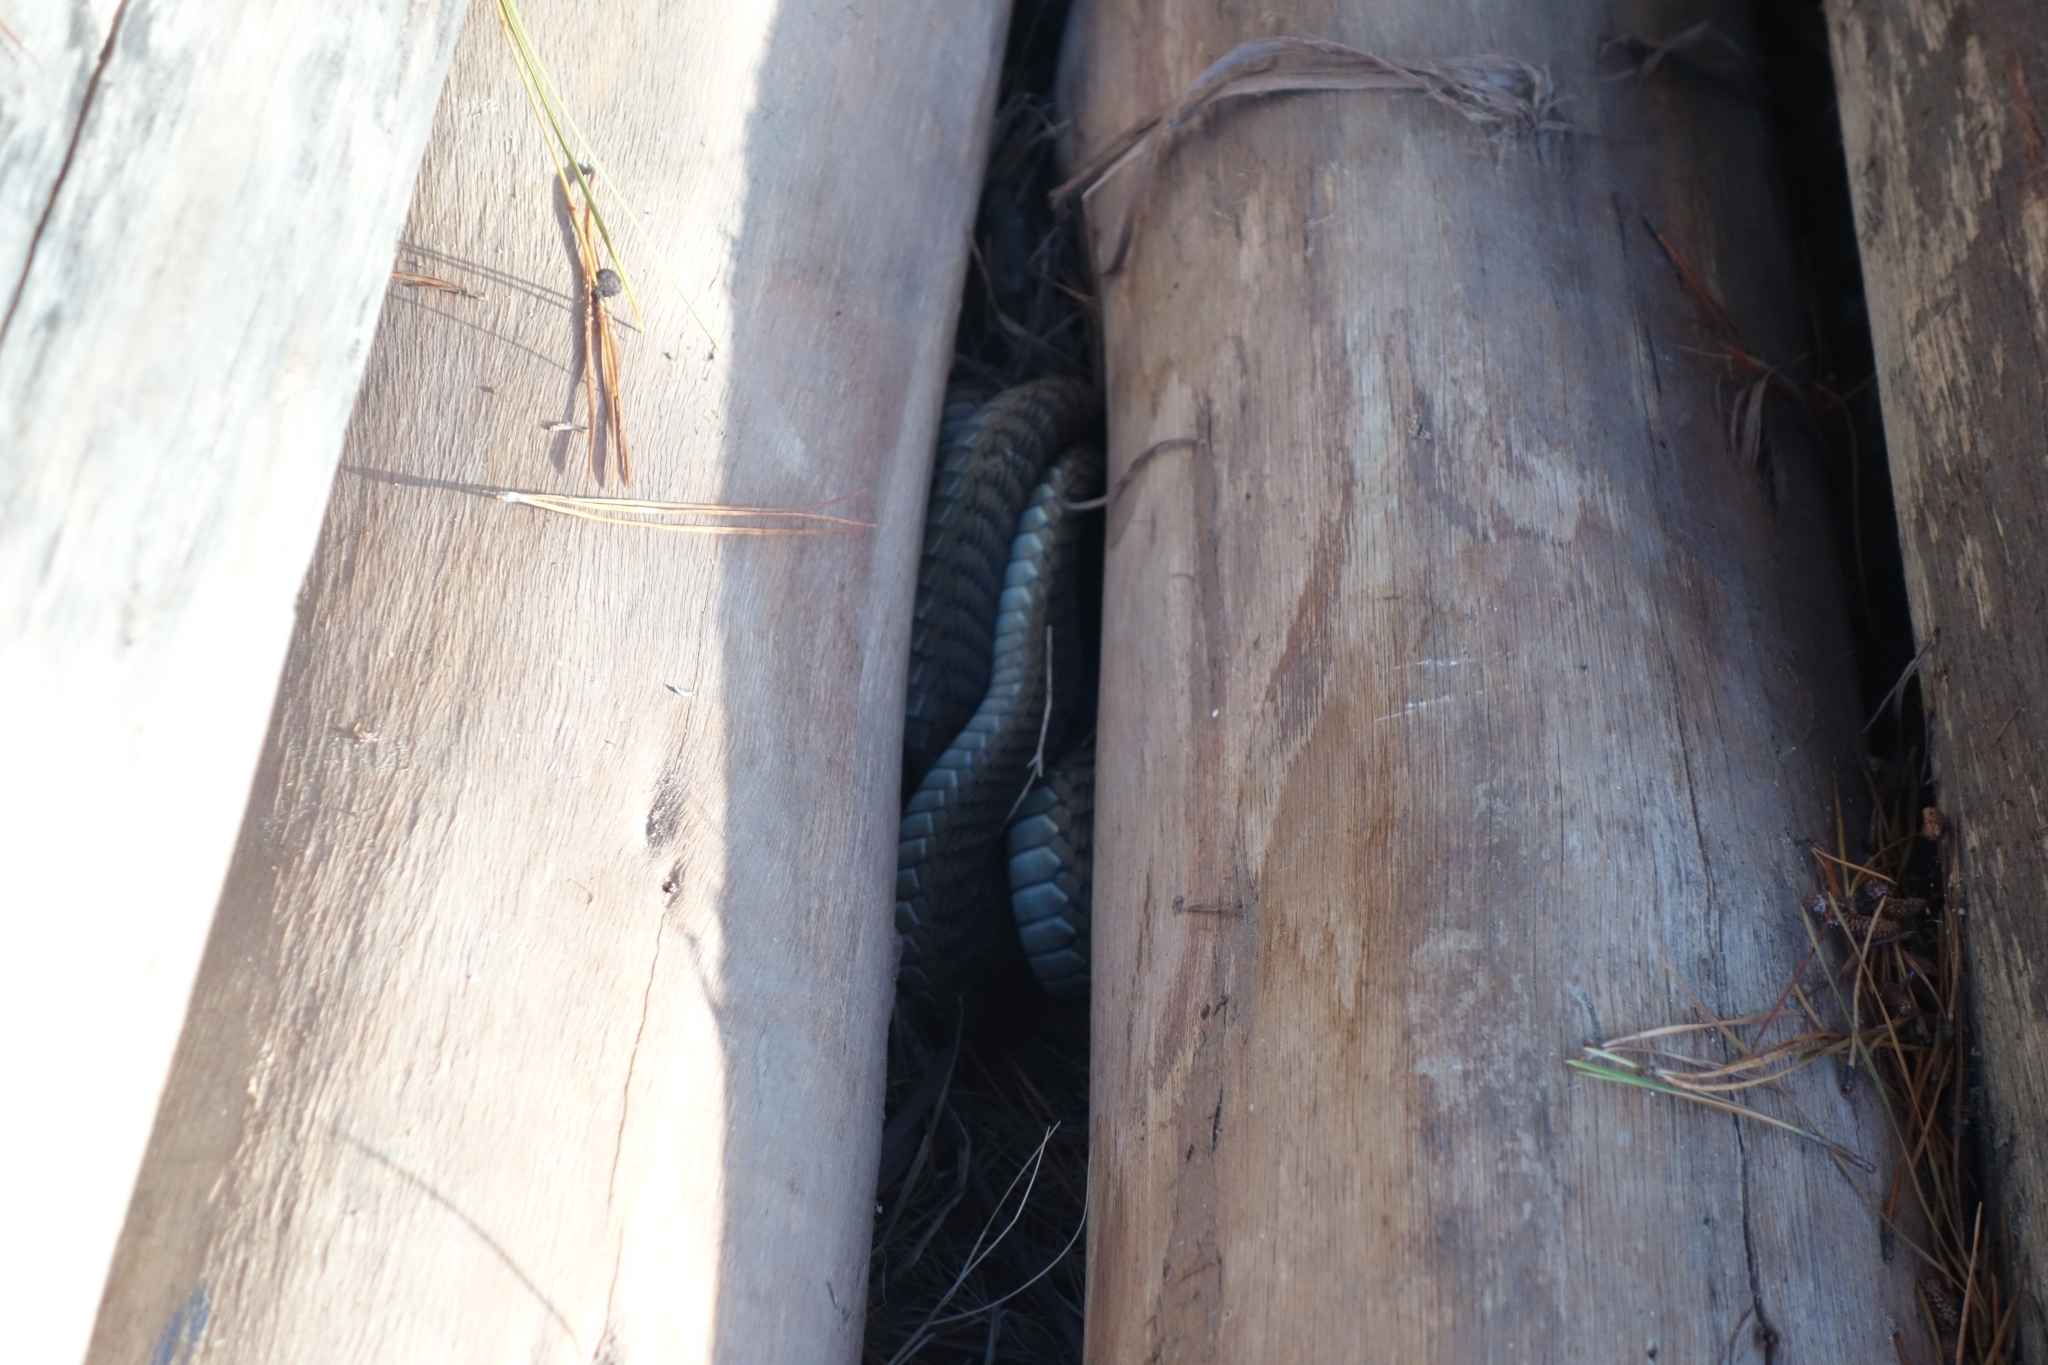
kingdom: Animalia
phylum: Chordata
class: Squamata
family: Colubridae
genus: Dispholidus
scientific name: Dispholidus typus
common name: Boomslang
